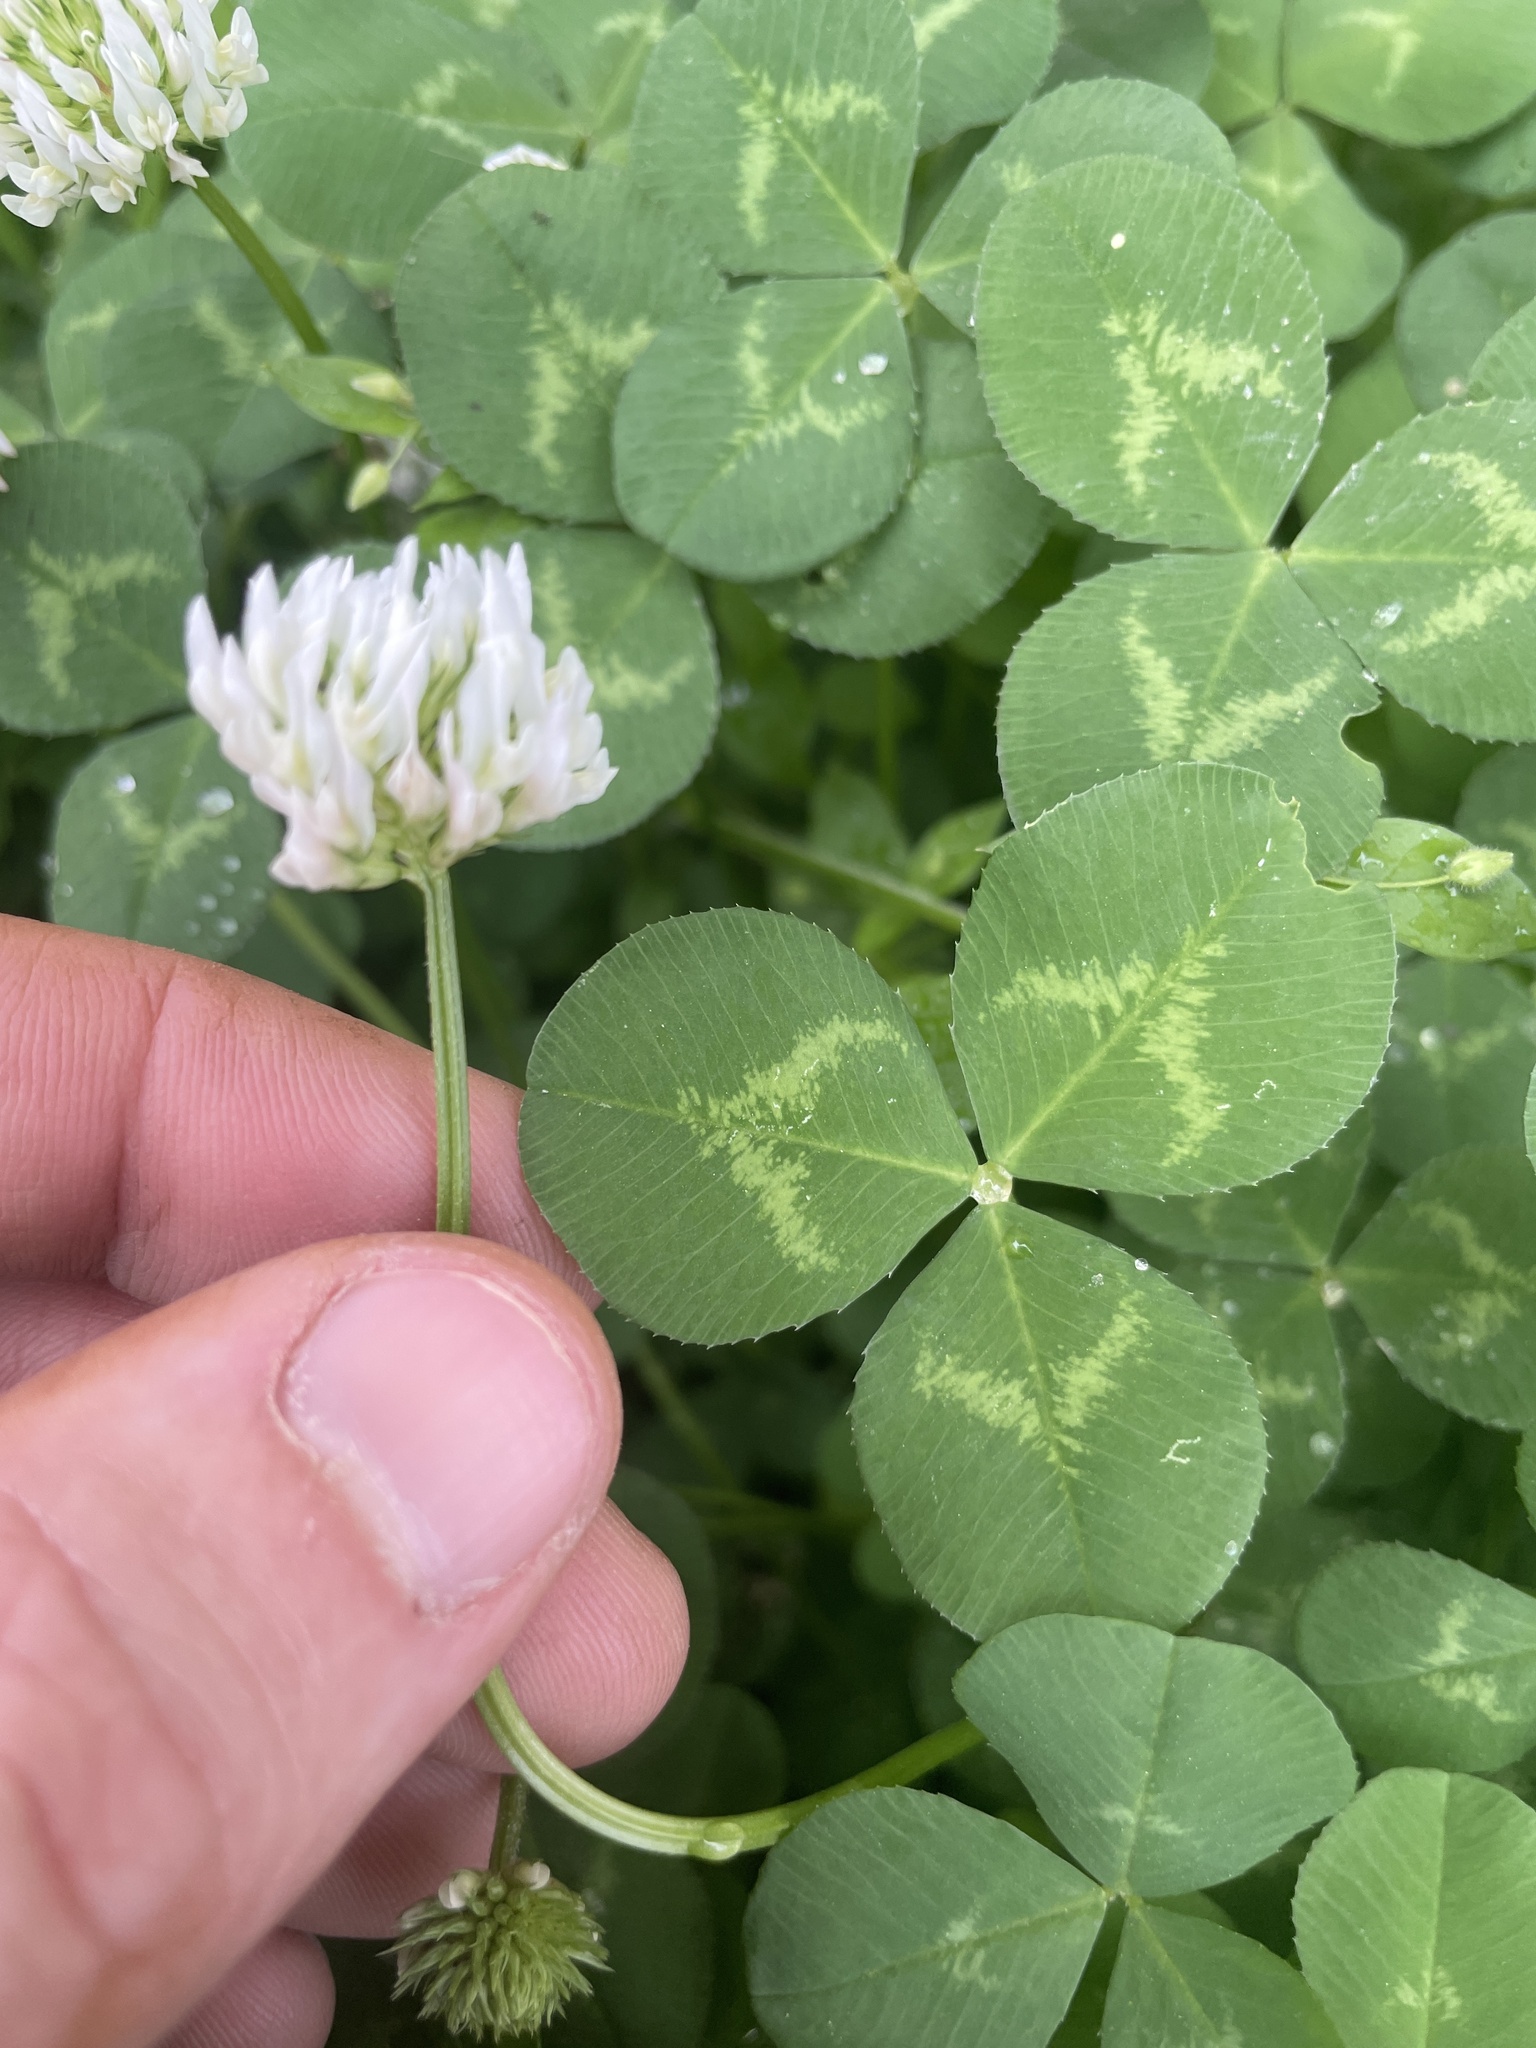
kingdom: Plantae
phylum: Tracheophyta
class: Magnoliopsida
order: Fabales
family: Fabaceae
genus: Trifolium
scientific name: Trifolium repens
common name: White clover
